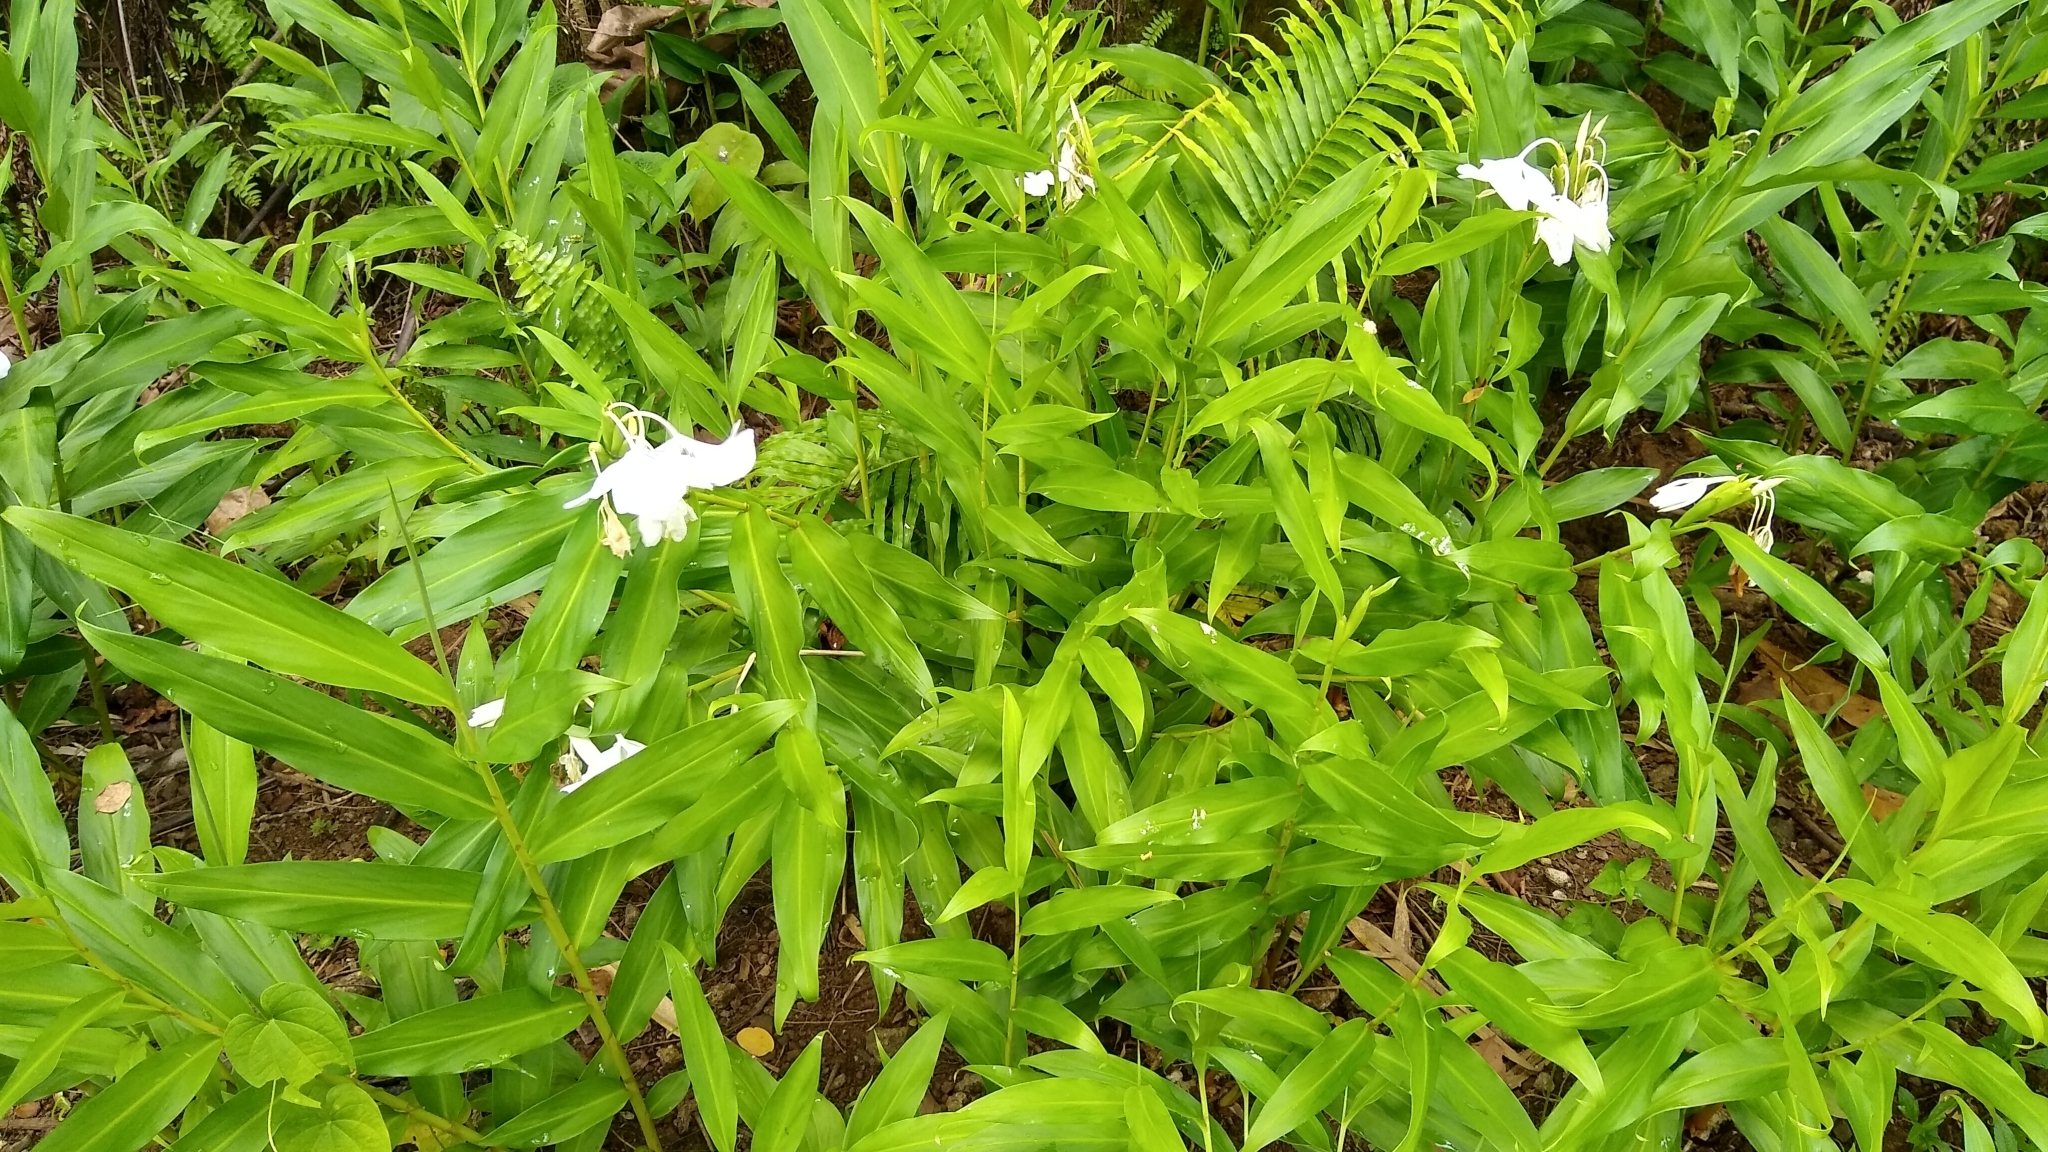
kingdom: Plantae
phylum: Tracheophyta
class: Liliopsida
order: Zingiberales
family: Zingiberaceae
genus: Hedychium
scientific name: Hedychium coronarium
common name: White garland-lily
